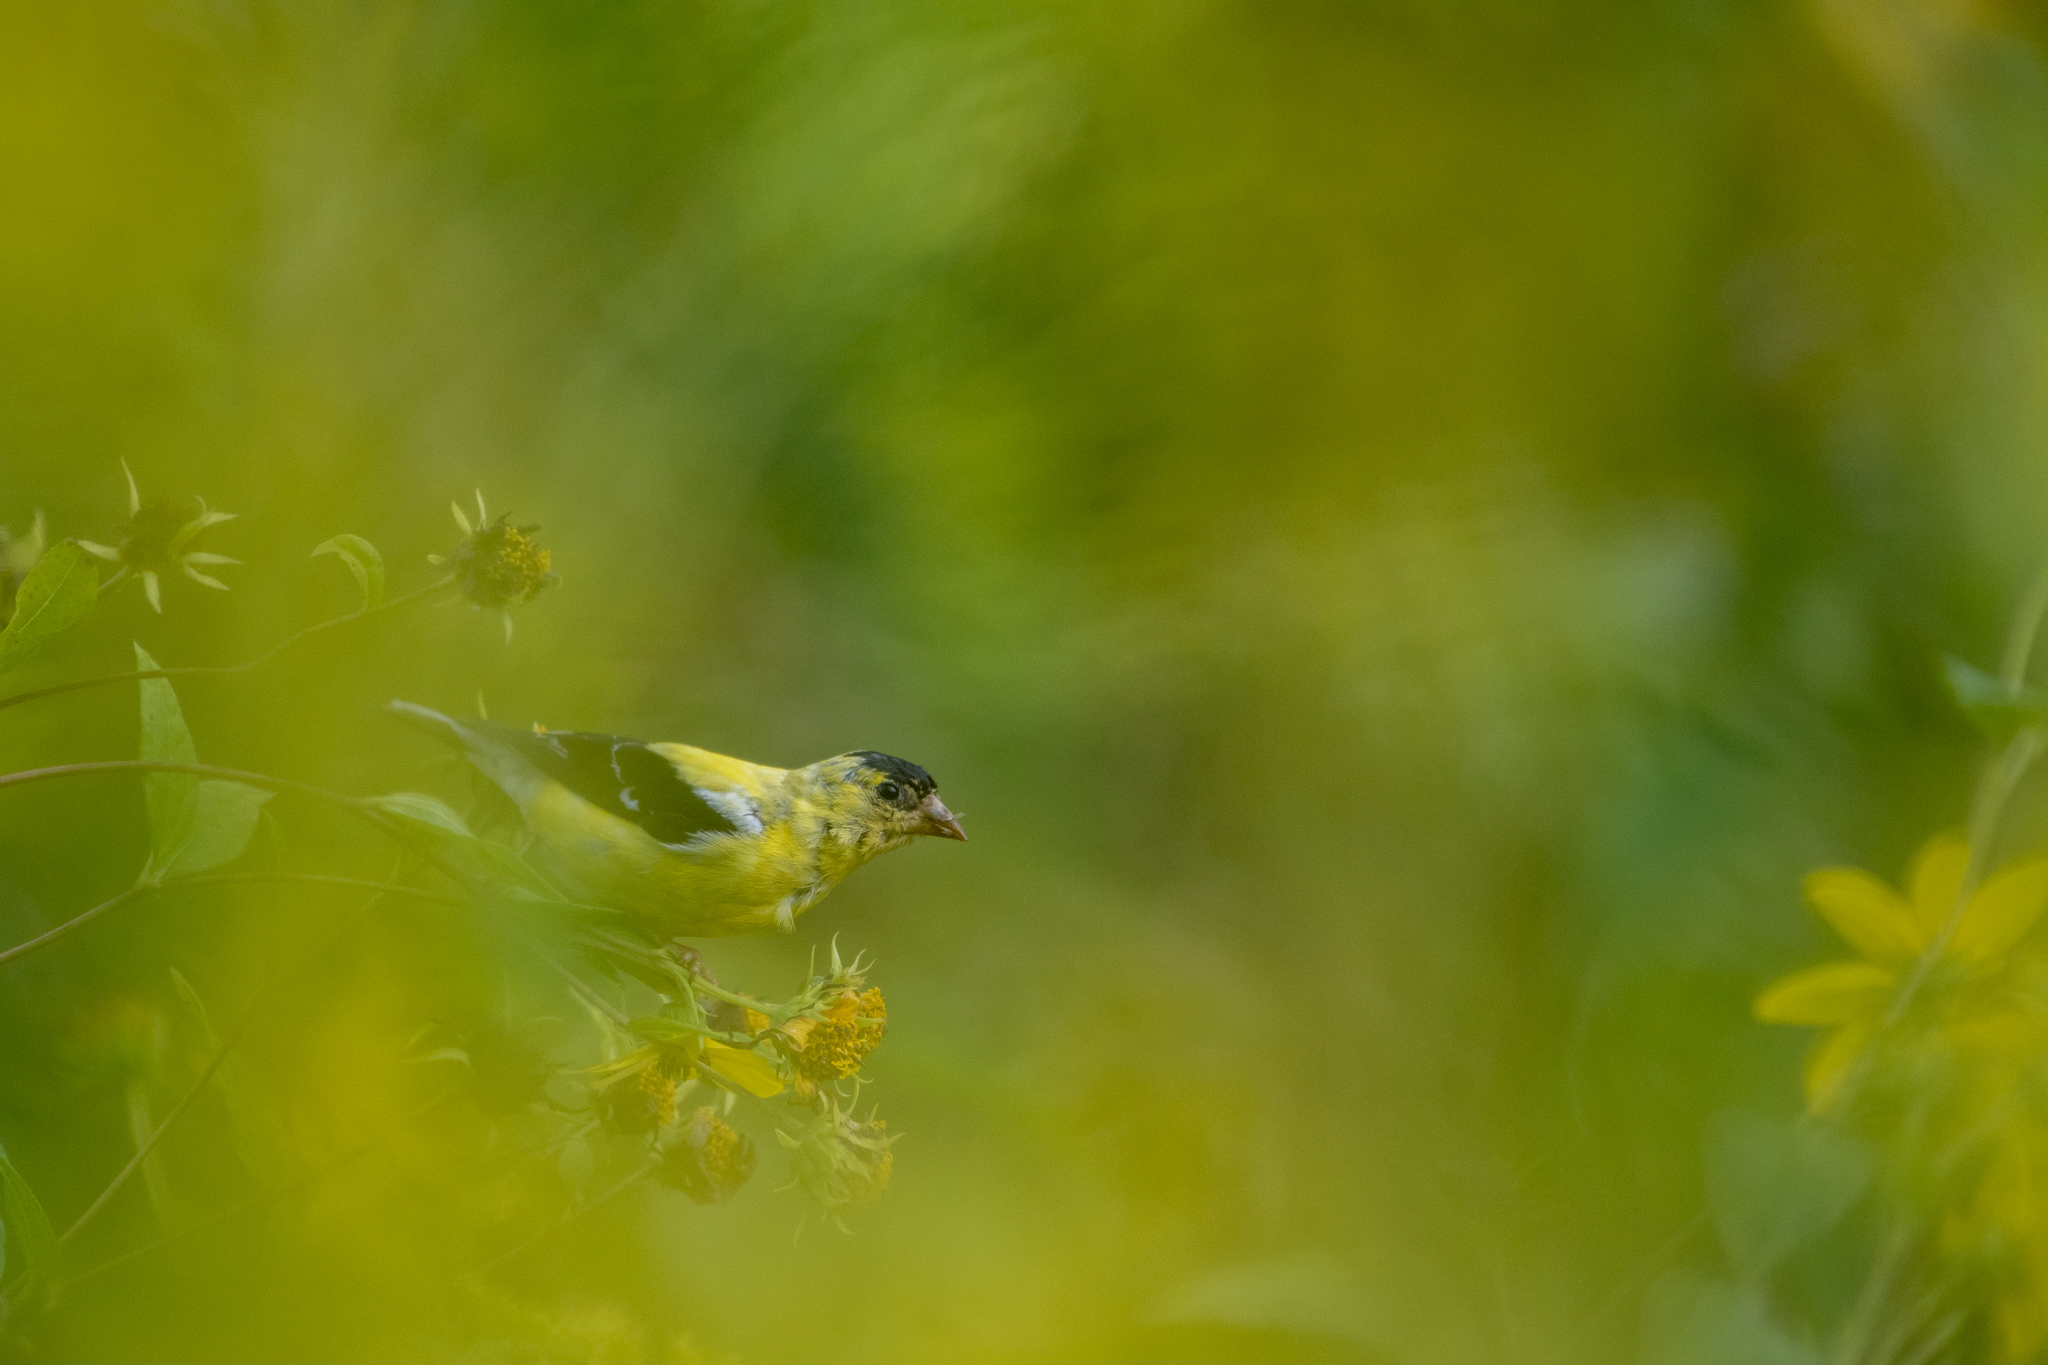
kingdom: Animalia
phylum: Chordata
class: Aves
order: Passeriformes
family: Fringillidae
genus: Spinus
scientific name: Spinus tristis
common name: American goldfinch
